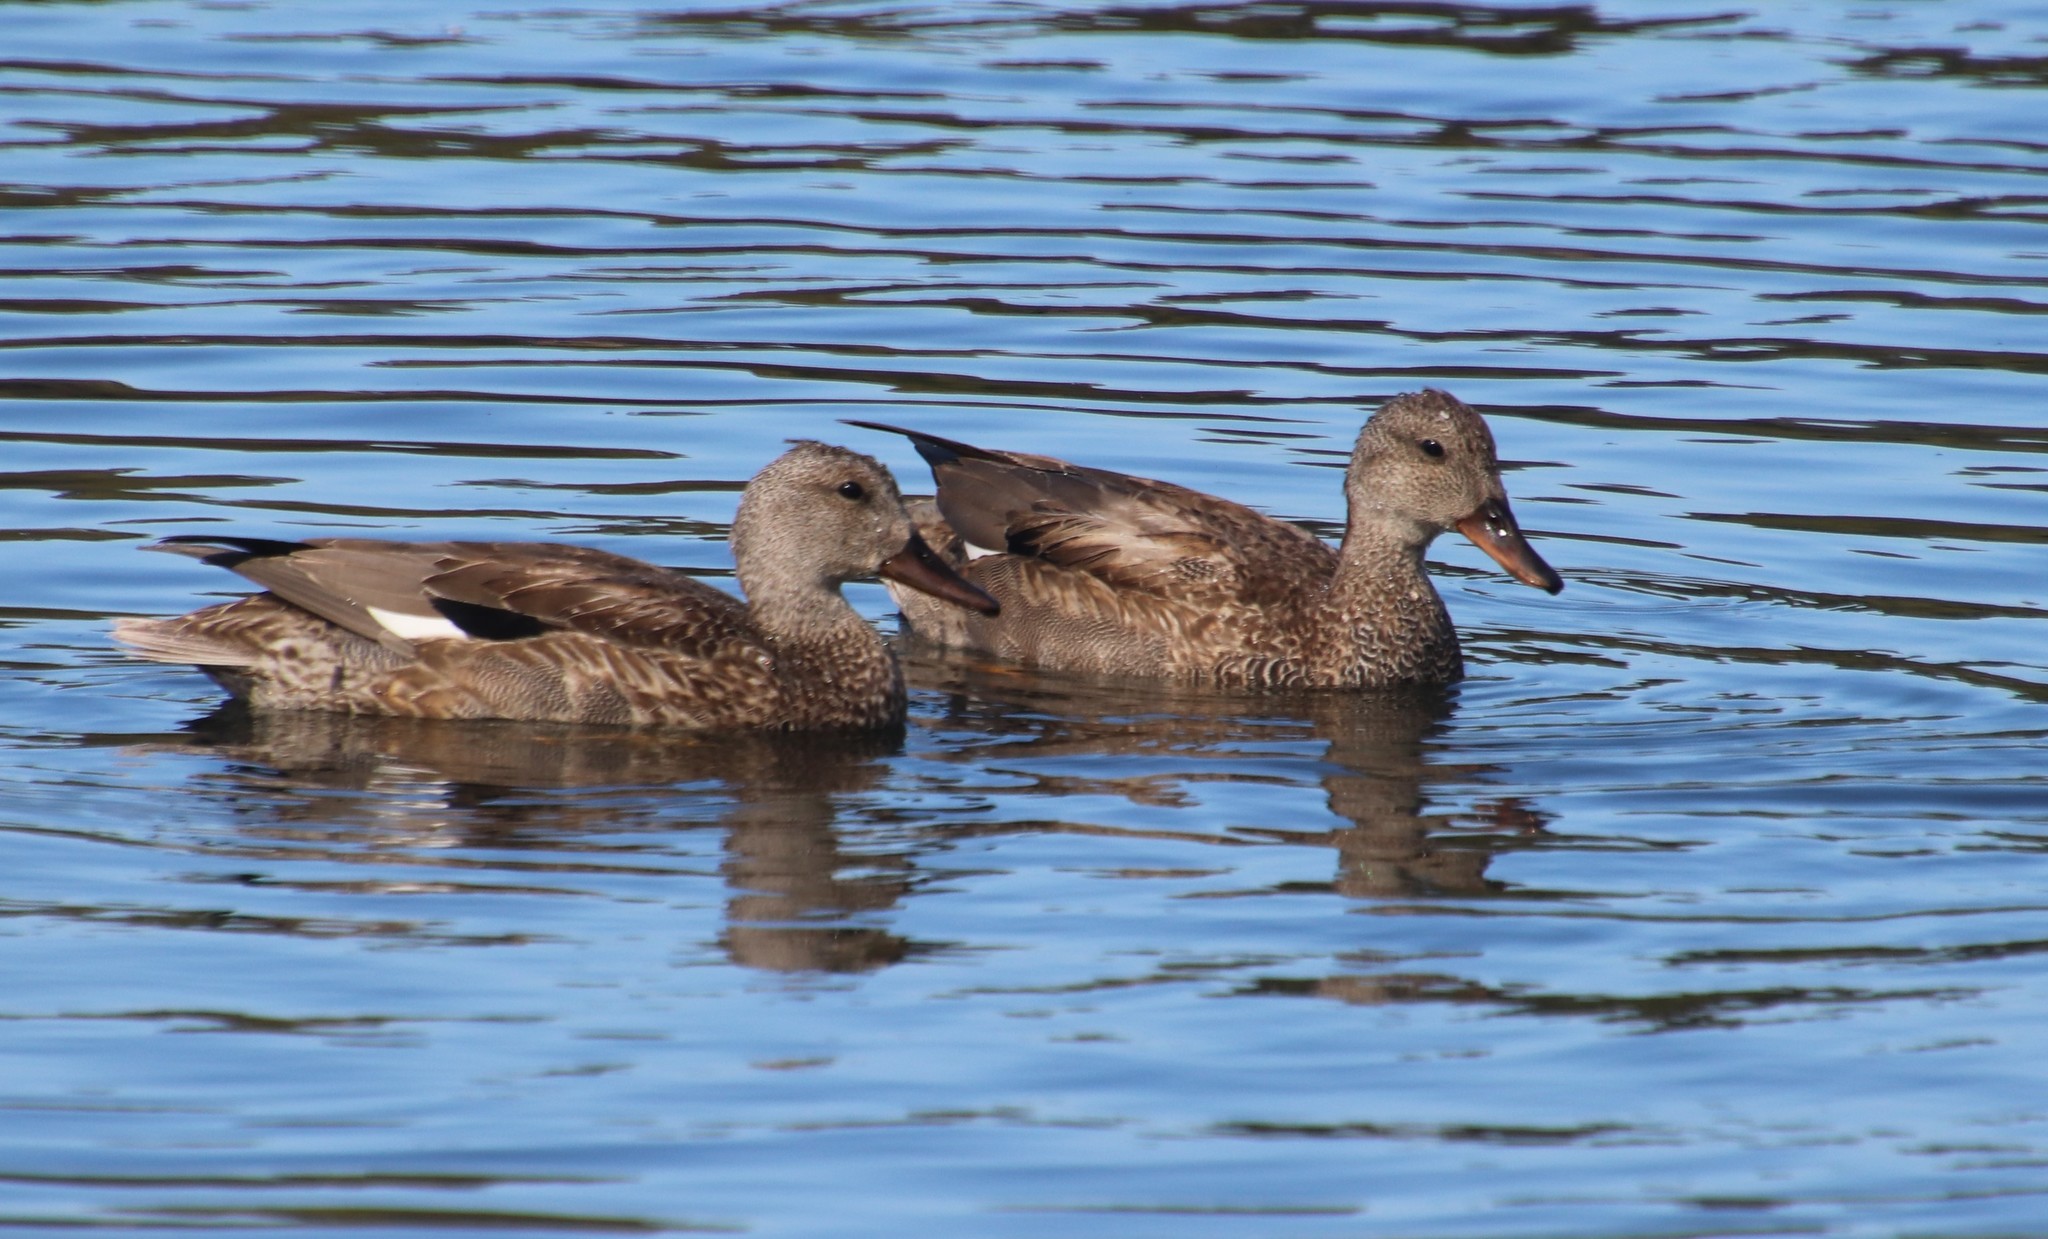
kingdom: Animalia
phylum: Chordata
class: Aves
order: Anseriformes
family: Anatidae
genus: Mareca
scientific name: Mareca strepera
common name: Gadwall
